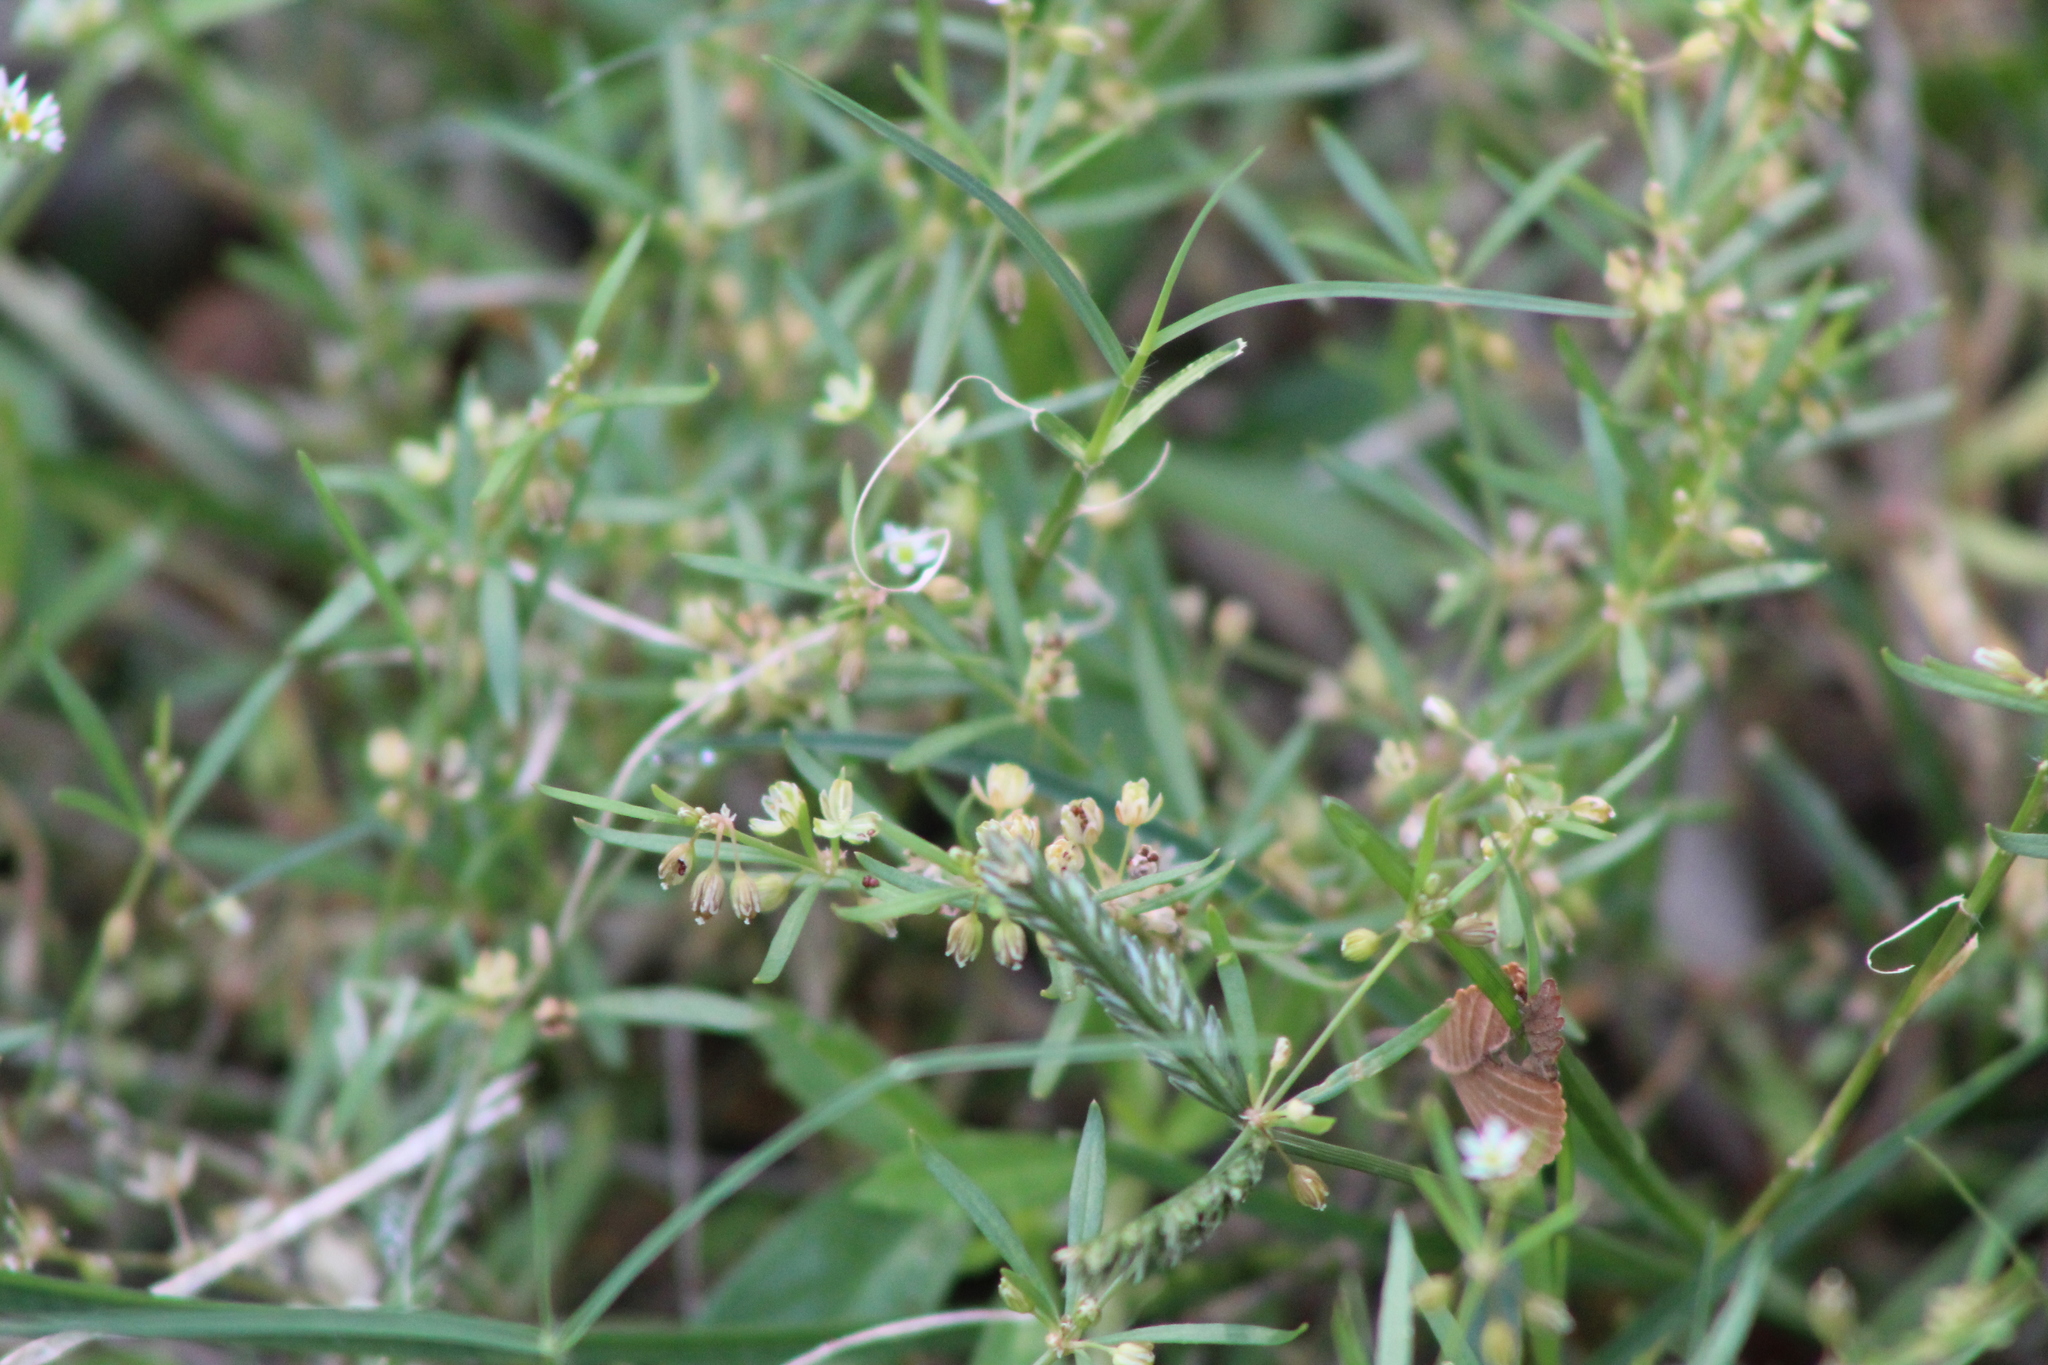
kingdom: Plantae
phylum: Tracheophyta
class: Magnoliopsida
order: Caryophyllales
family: Molluginaceae
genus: Mollugo
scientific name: Mollugo verticillata
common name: Green carpetweed
